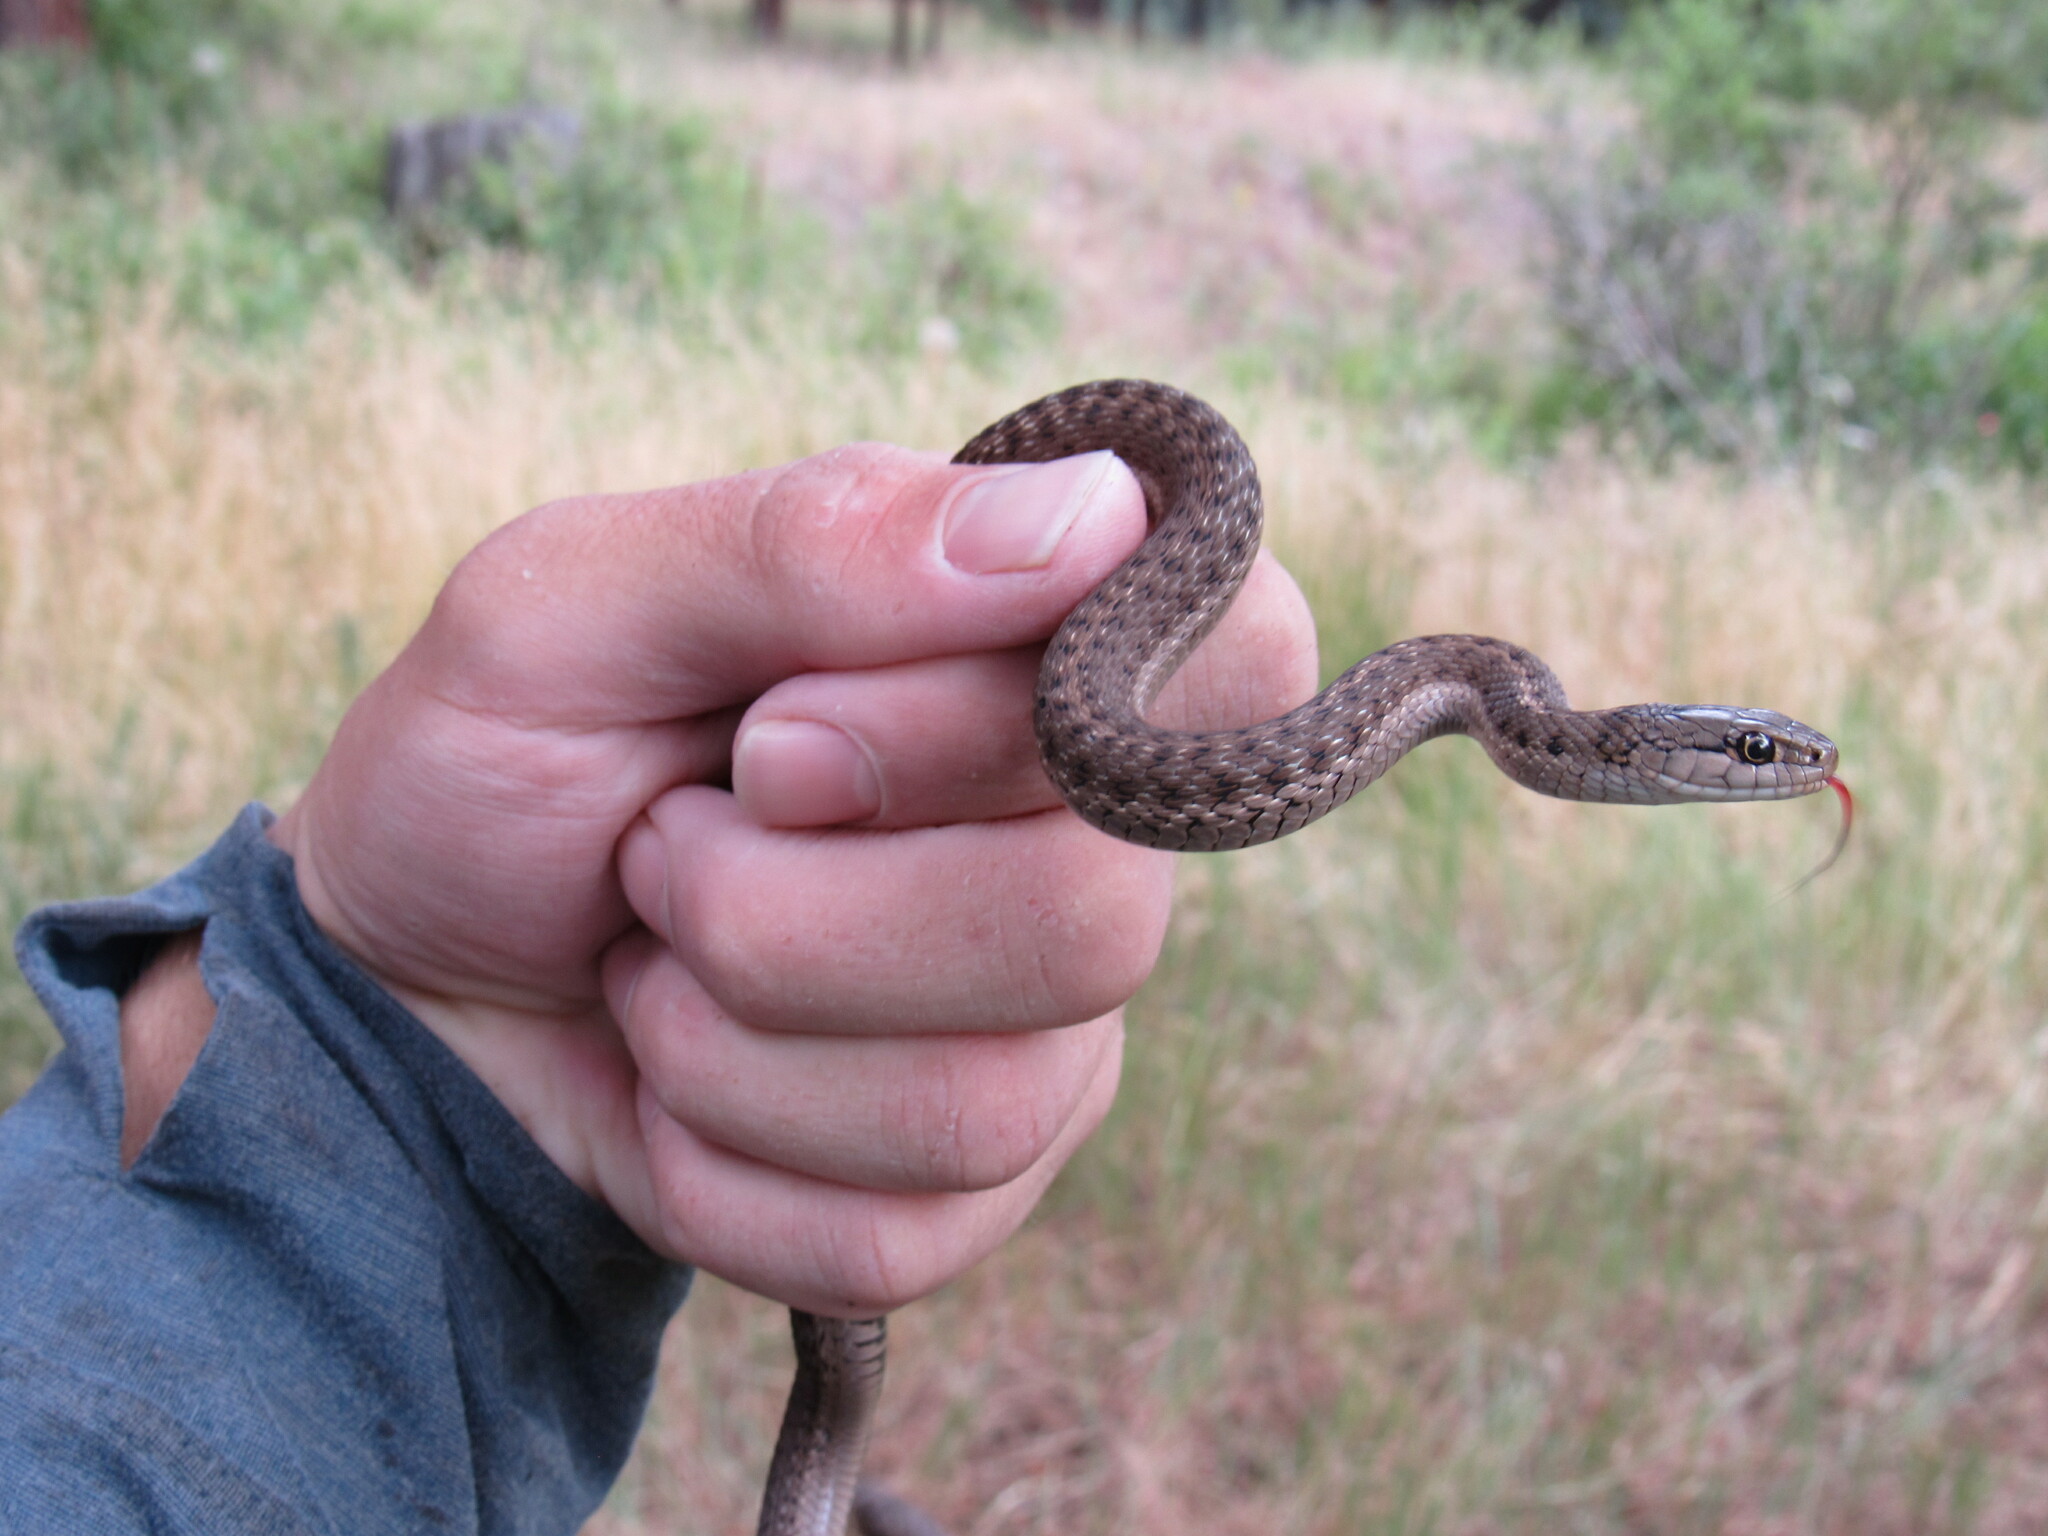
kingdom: Animalia
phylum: Chordata
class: Squamata
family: Colubridae
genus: Thamnophis
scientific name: Thamnophis elegans
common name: Western terrestrial garter snake
